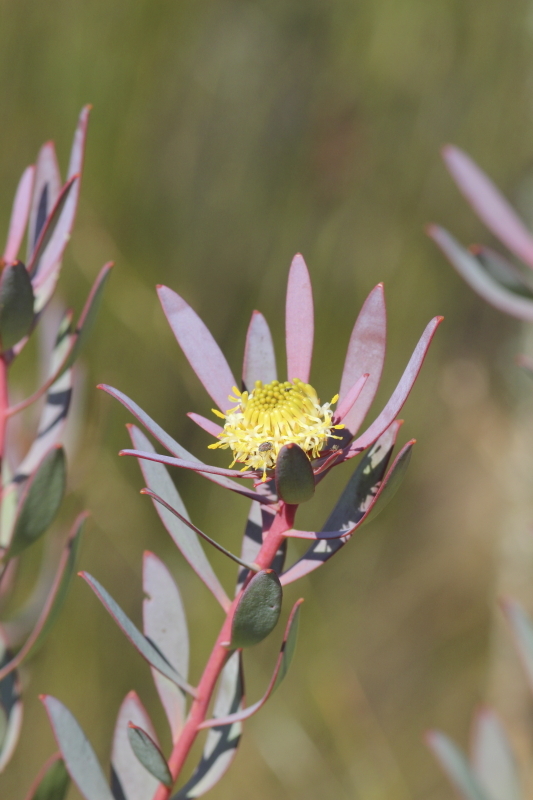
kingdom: Plantae
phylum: Tracheophyta
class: Magnoliopsida
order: Proteales
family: Proteaceae
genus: Leucadendron
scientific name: Leucadendron glaberrimum
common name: Common oily conebush
